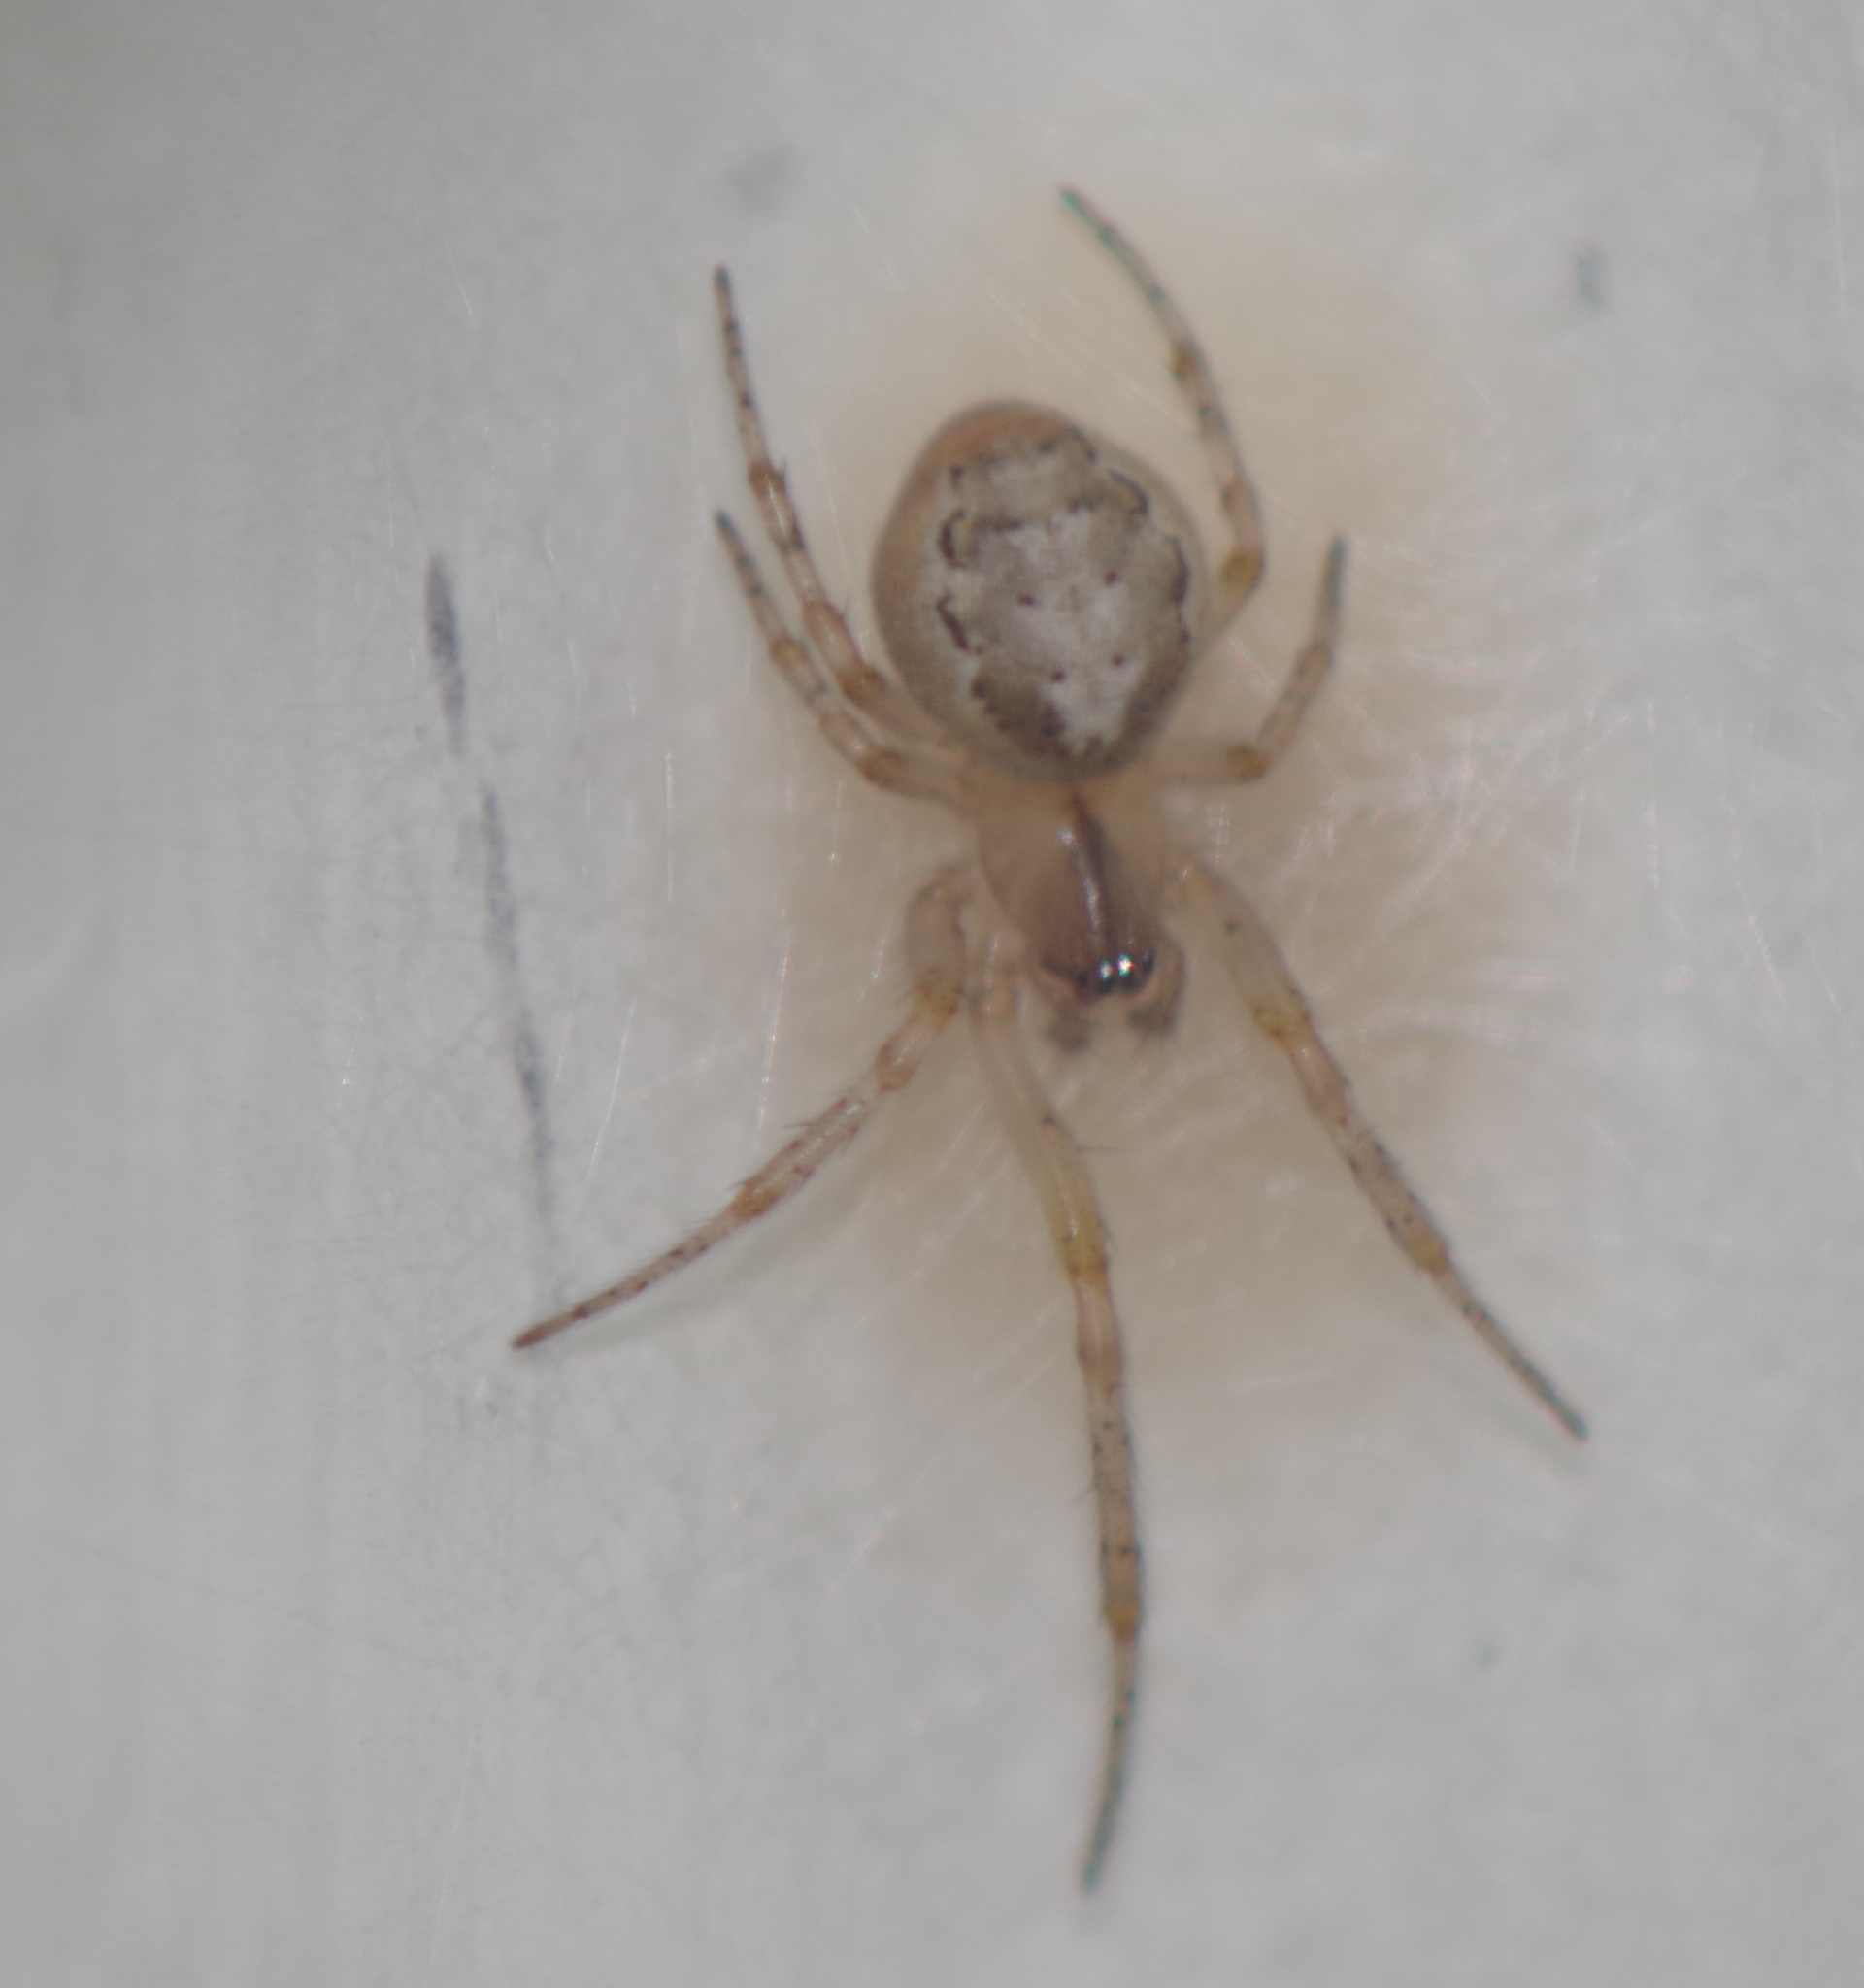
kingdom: Animalia
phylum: Arthropoda
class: Arachnida
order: Araneae
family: Araneidae
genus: Zygiella
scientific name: Zygiella x-notata
